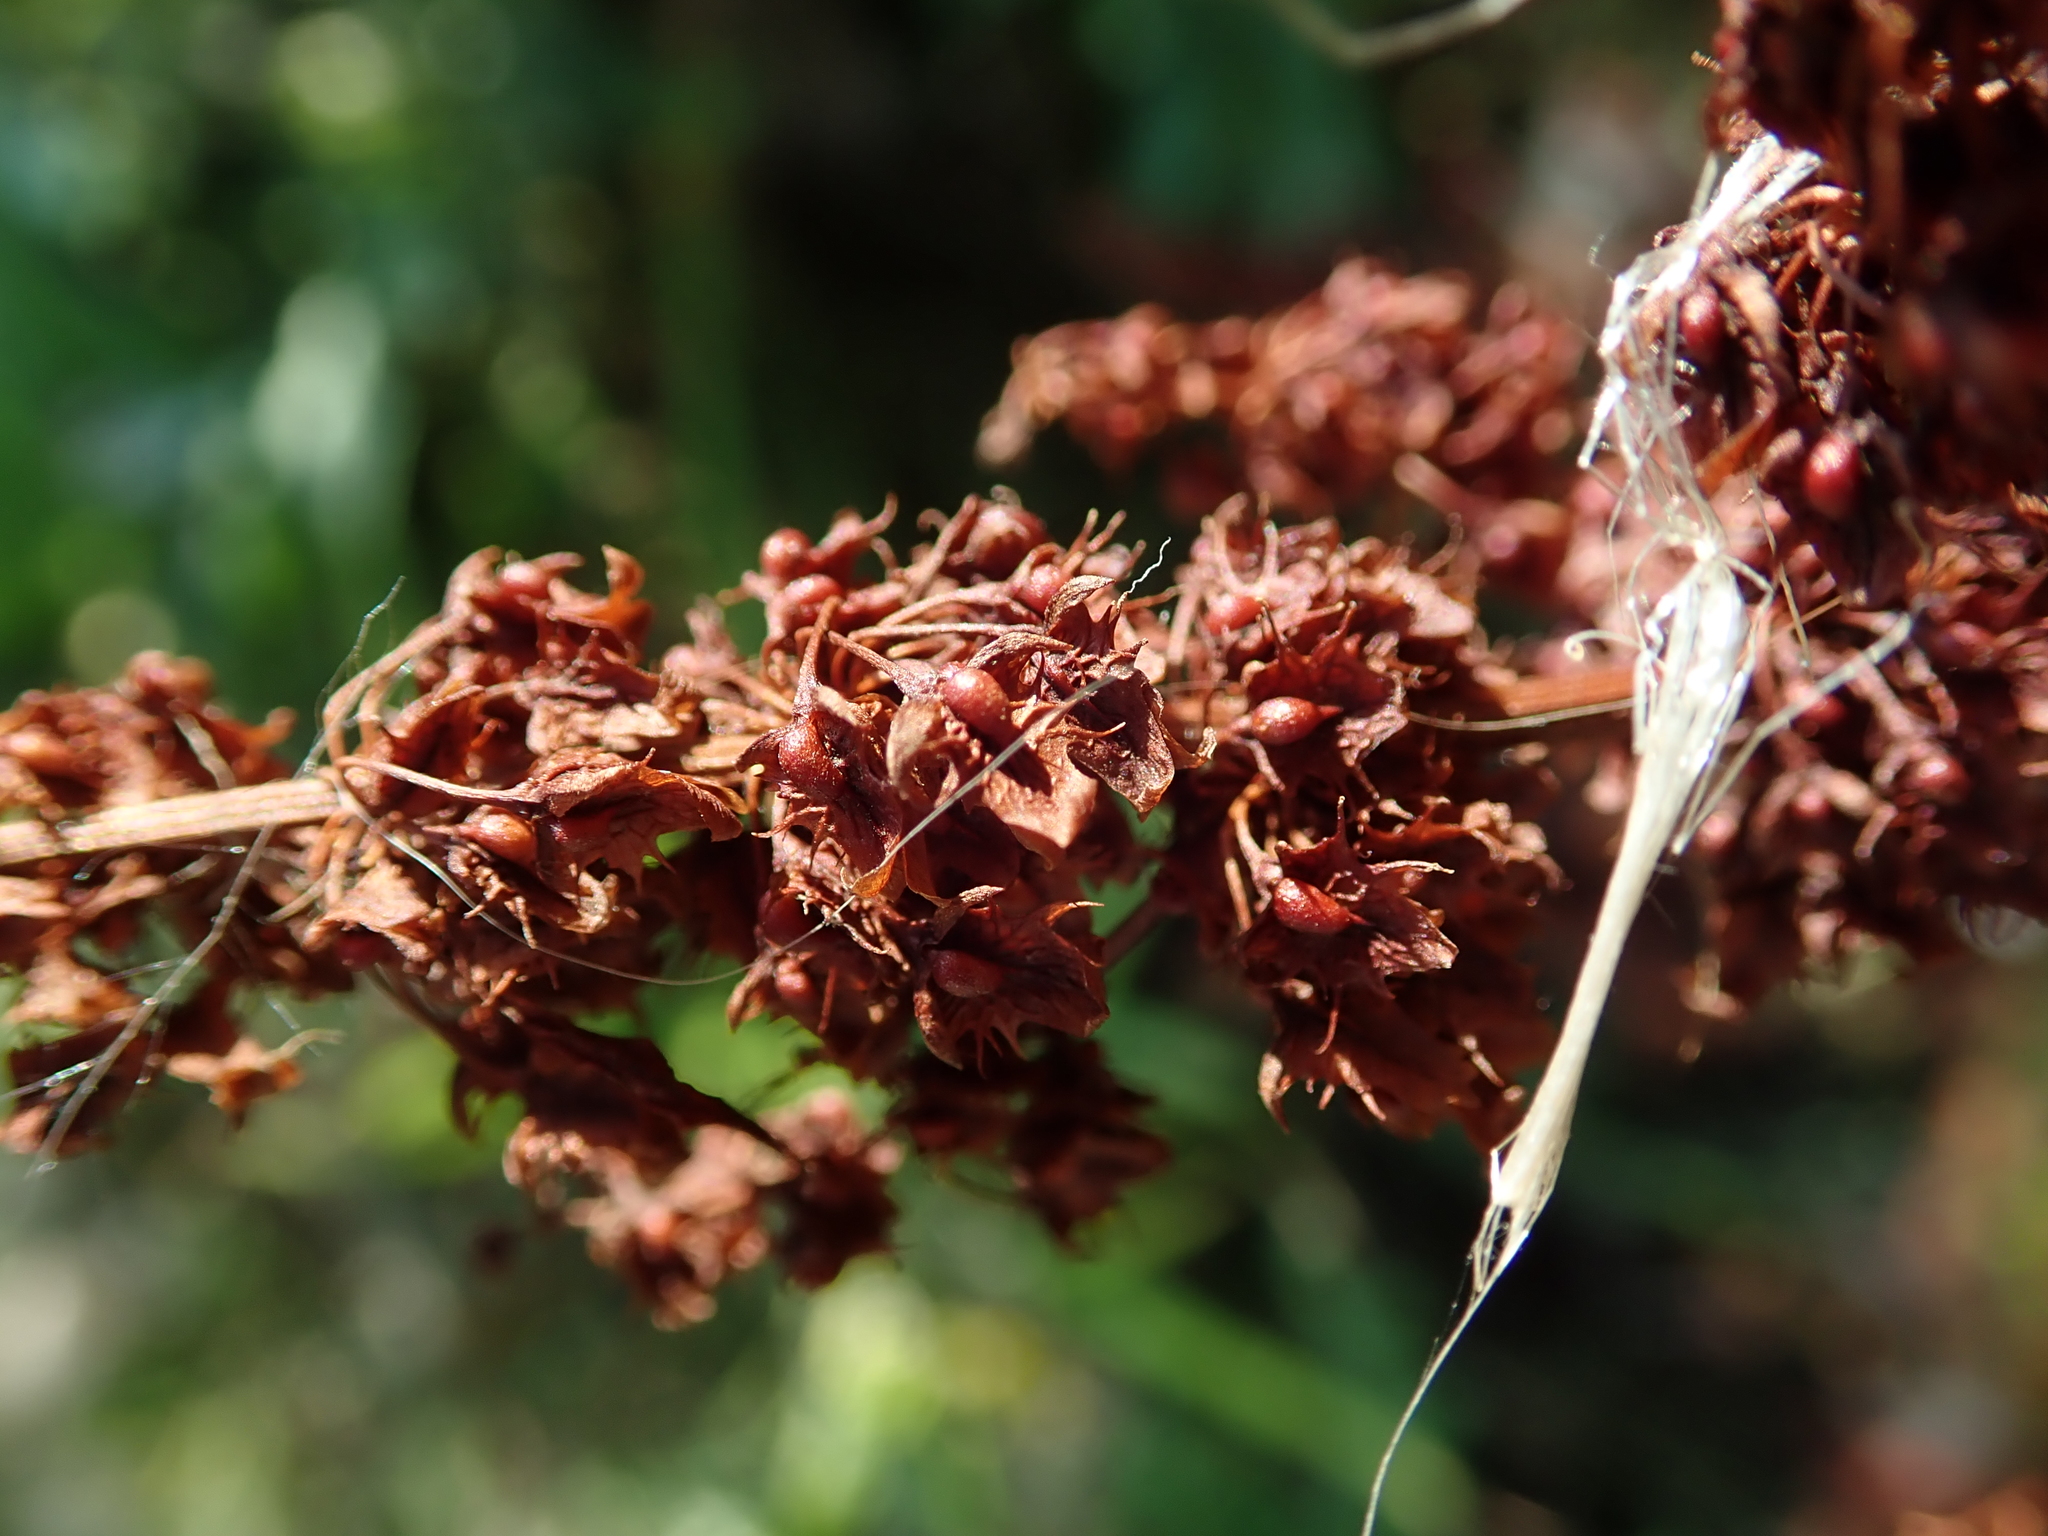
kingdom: Plantae
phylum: Tracheophyta
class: Magnoliopsida
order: Caryophyllales
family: Polygonaceae
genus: Rumex
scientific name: Rumex obtusifolius
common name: Bitter dock
